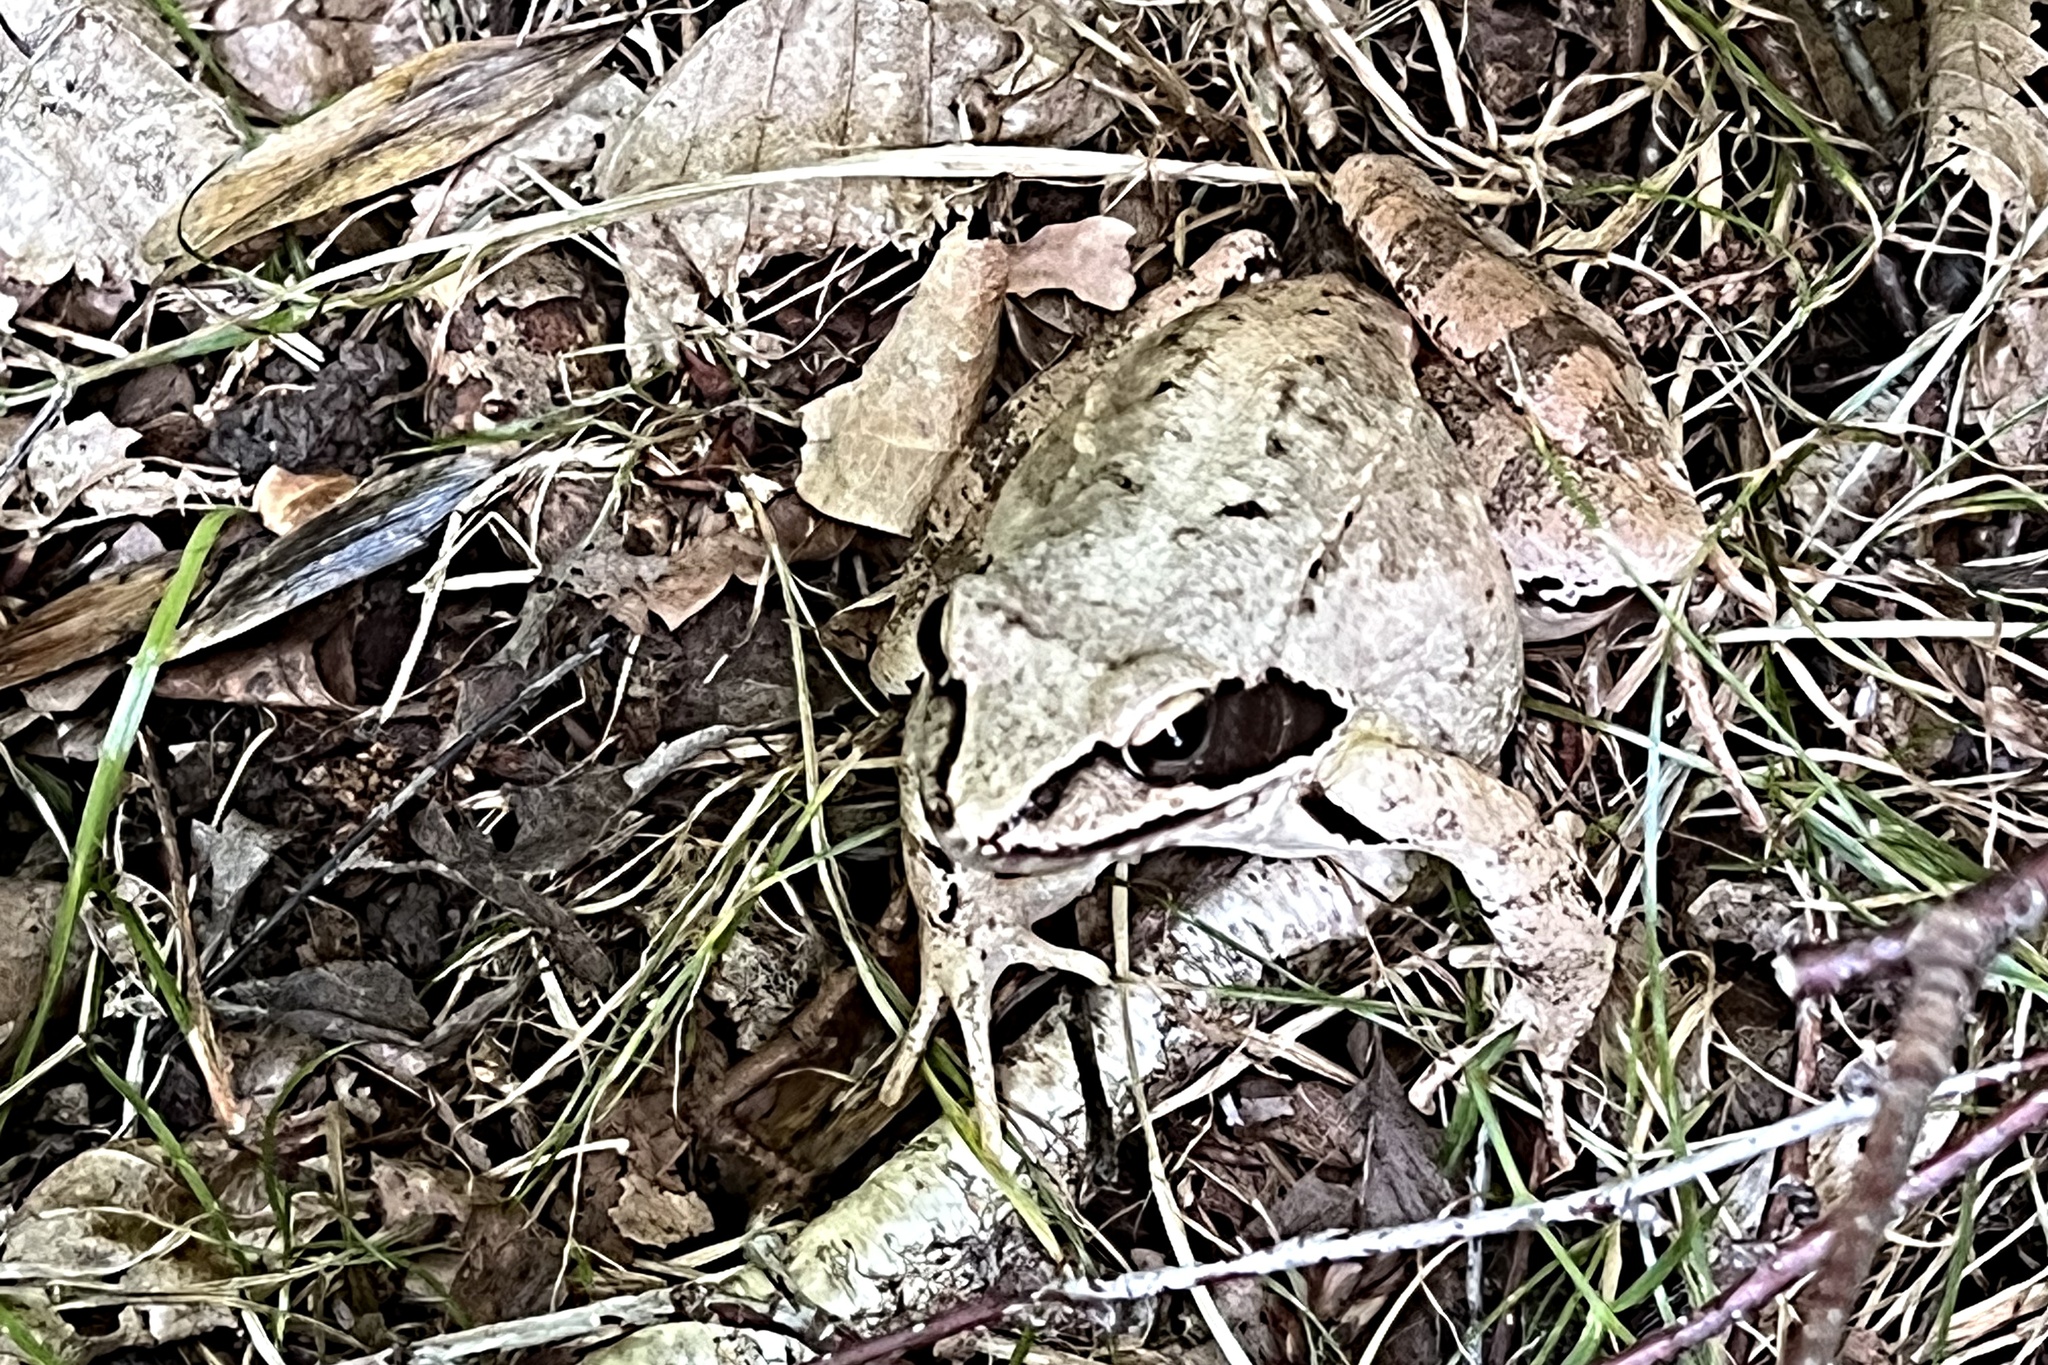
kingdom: Animalia
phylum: Chordata
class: Amphibia
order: Anura
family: Ranidae
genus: Rana
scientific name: Rana dalmatina
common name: Agile frog
